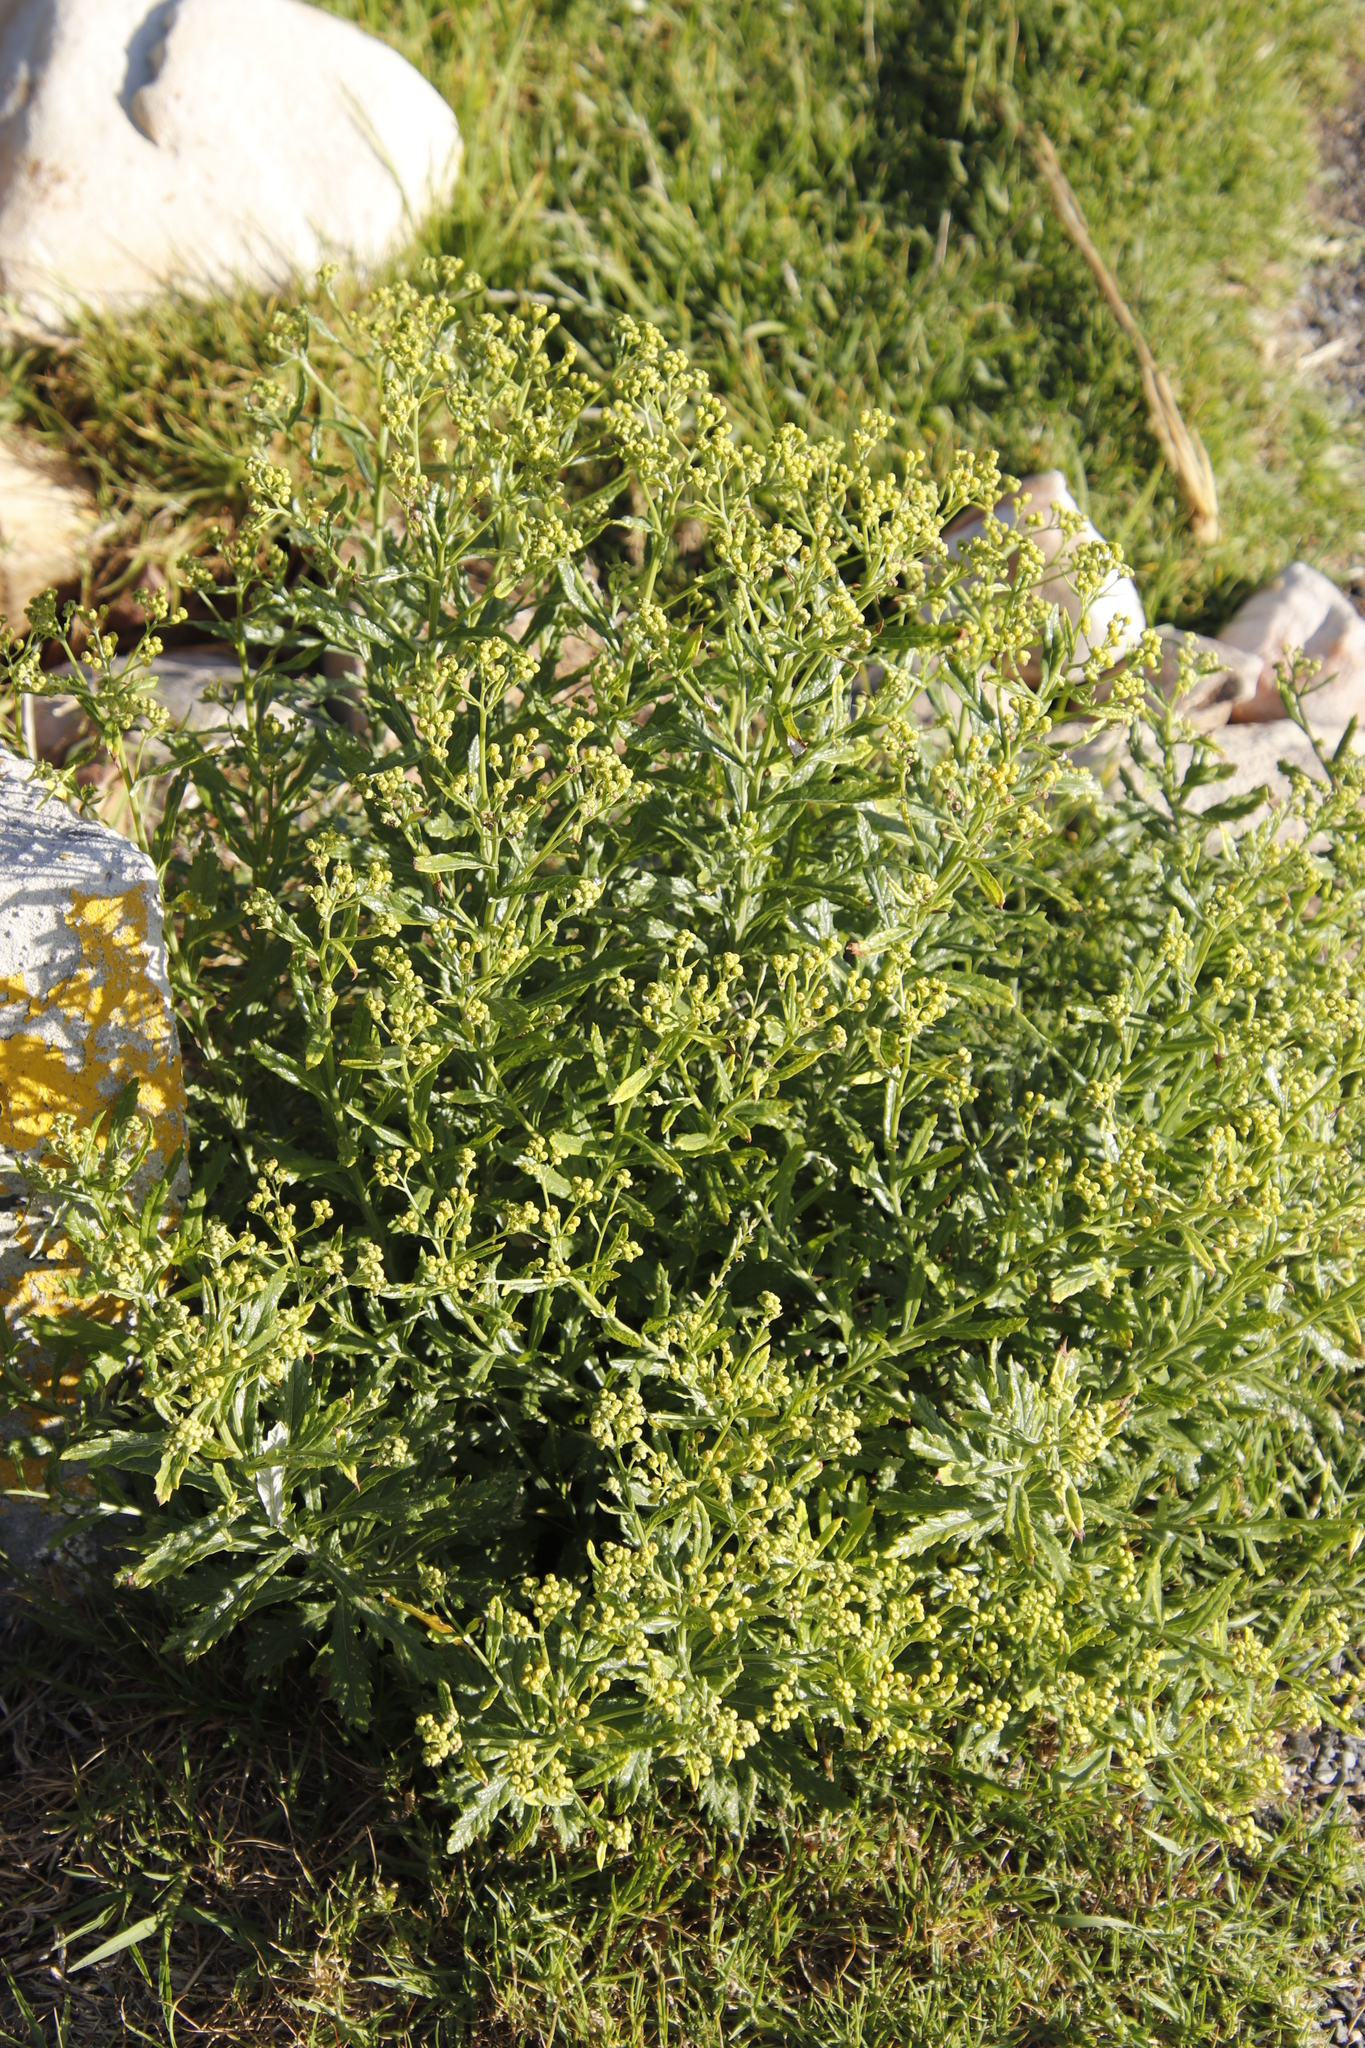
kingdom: Plantae
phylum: Tracheophyta
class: Magnoliopsida
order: Asterales
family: Asteraceae
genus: Senecio
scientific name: Senecio pterophorus
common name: Shoddy ragwort
